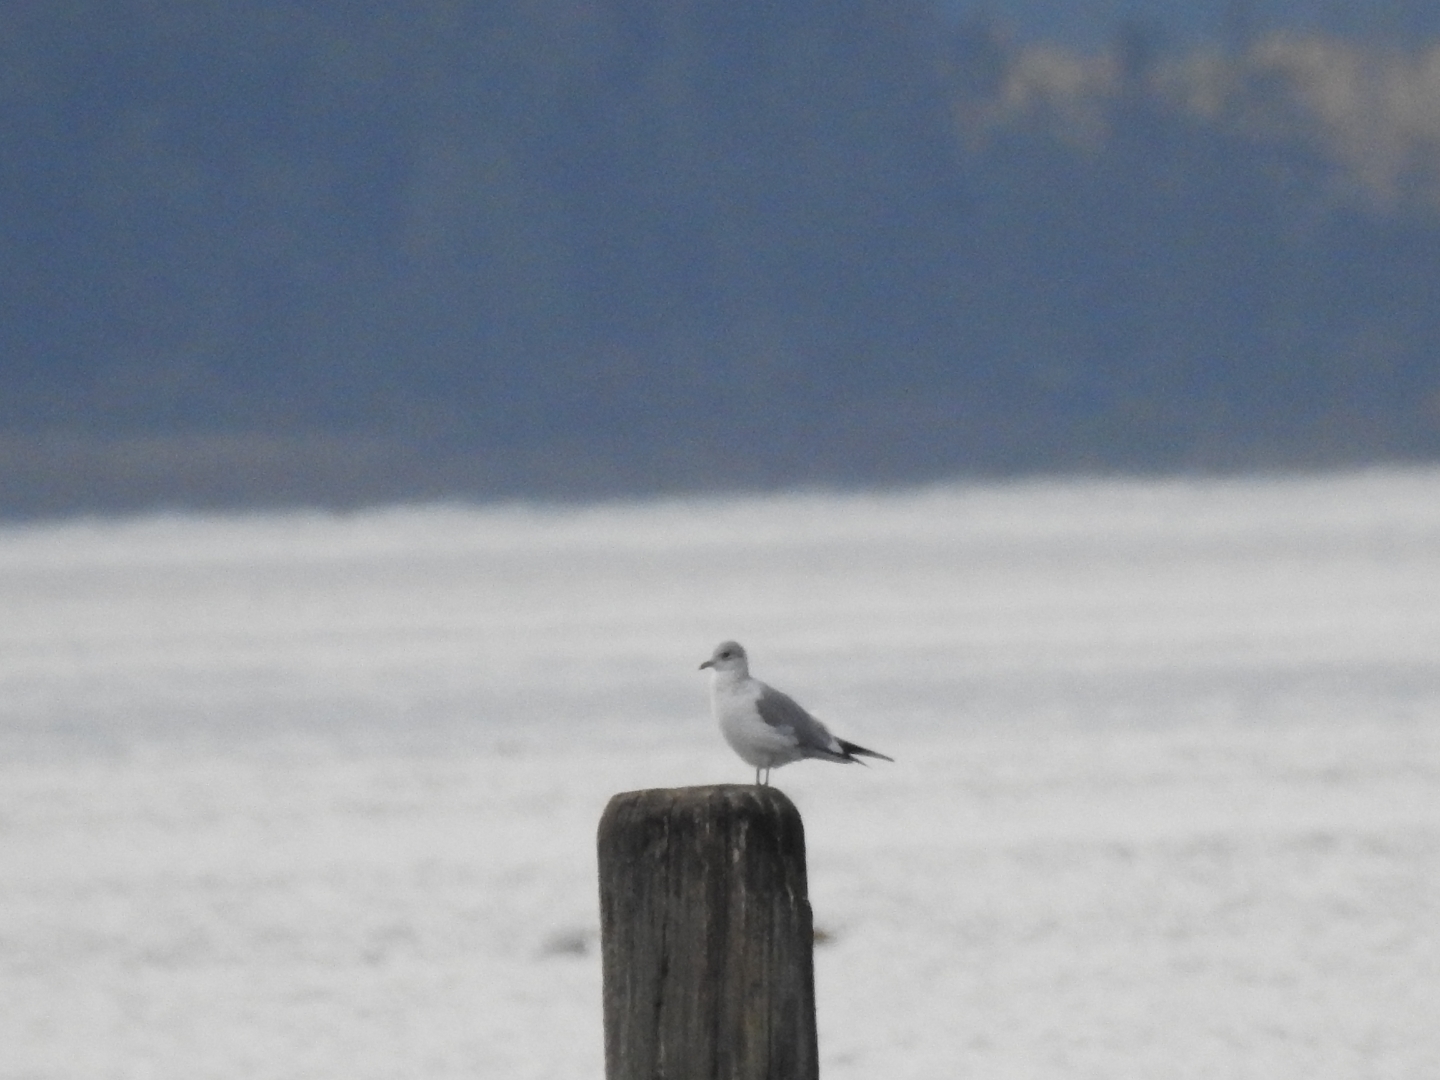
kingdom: Animalia
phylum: Chordata
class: Aves
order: Charadriiformes
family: Laridae
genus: Larus
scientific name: Larus brachyrhynchus
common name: Short-billed gull
